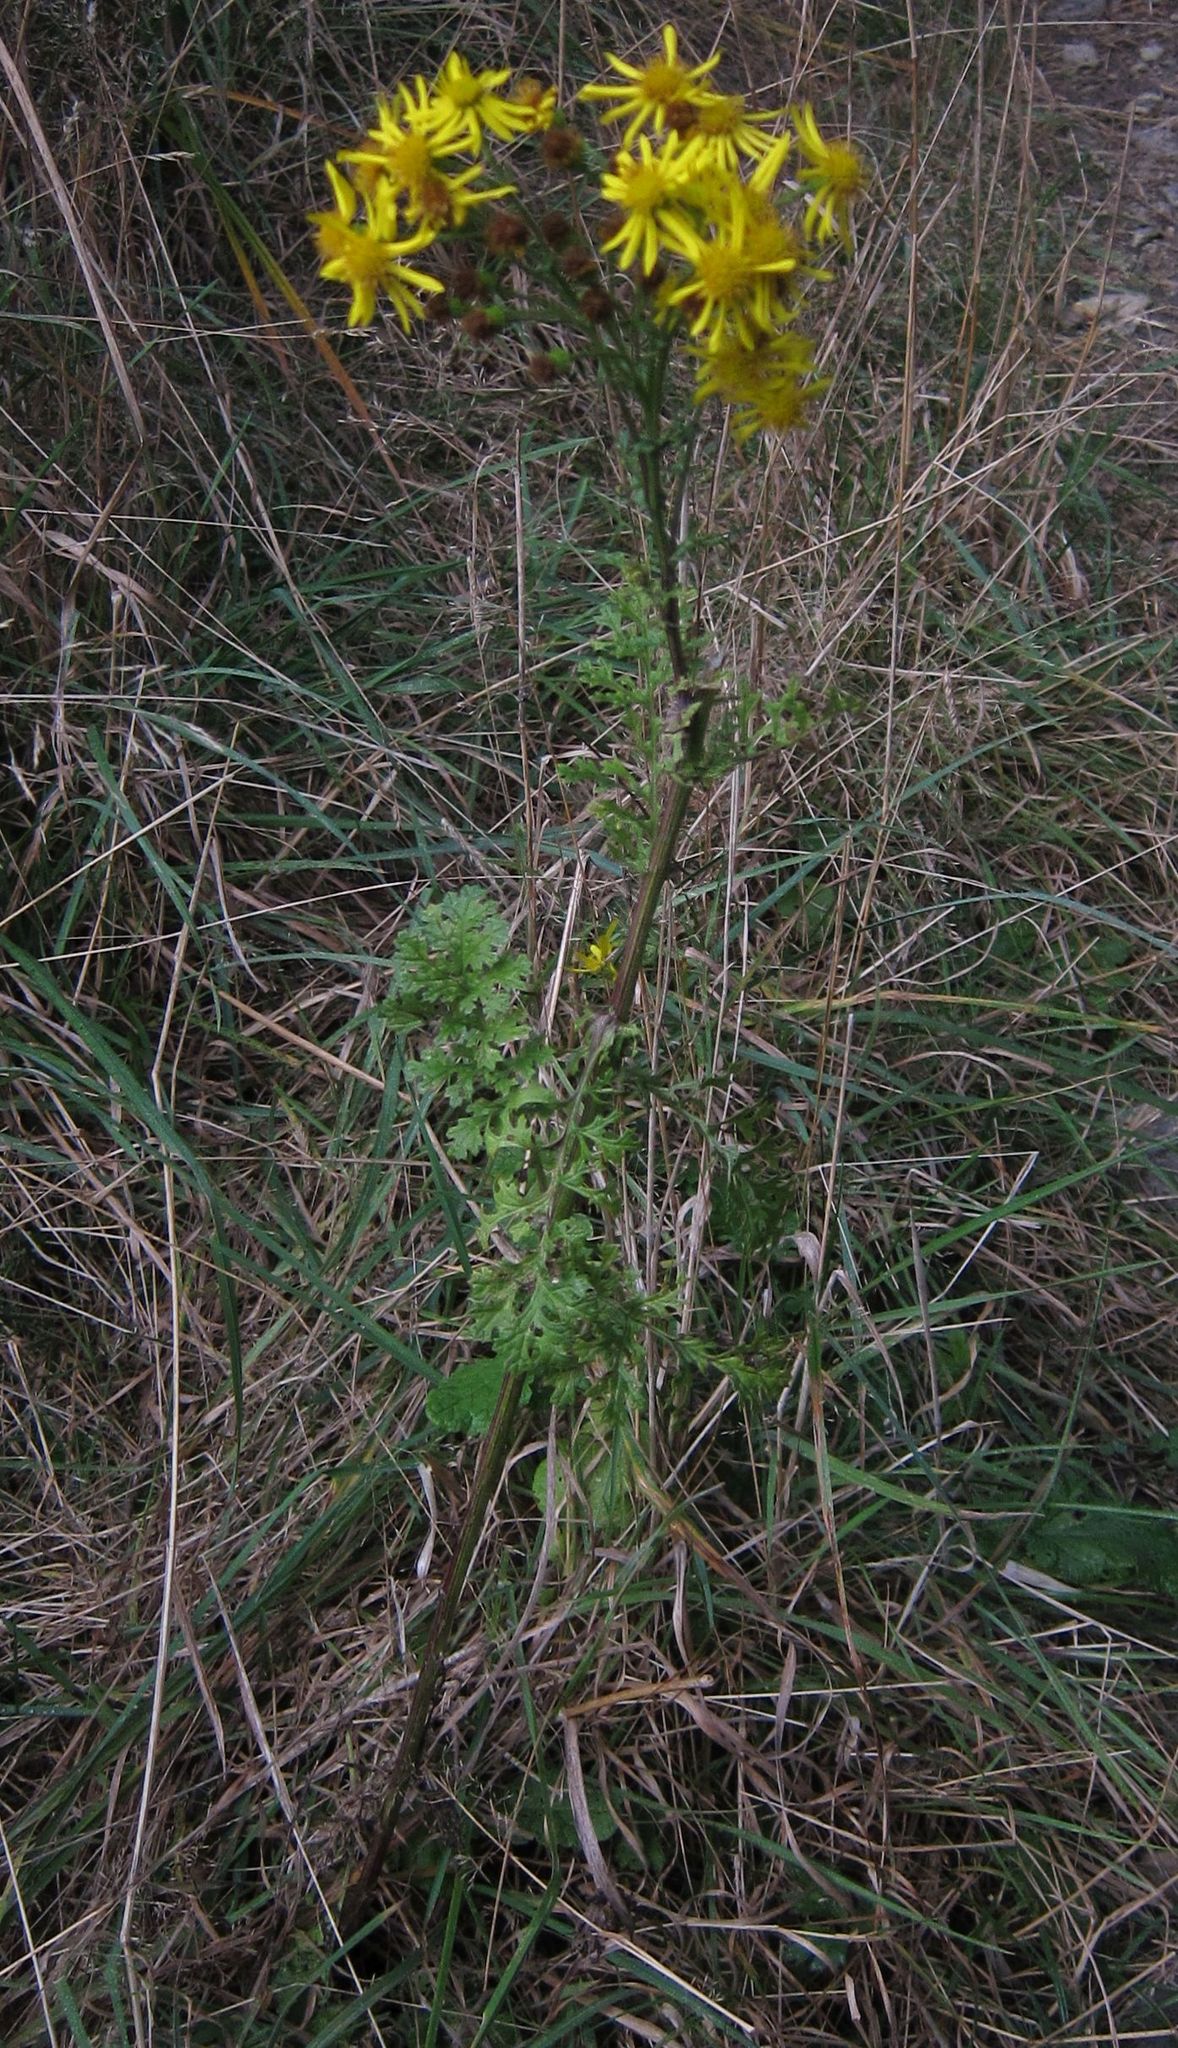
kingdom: Plantae
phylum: Tracheophyta
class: Magnoliopsida
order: Asterales
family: Asteraceae
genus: Jacobaea
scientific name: Jacobaea vulgaris
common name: Stinking willie
